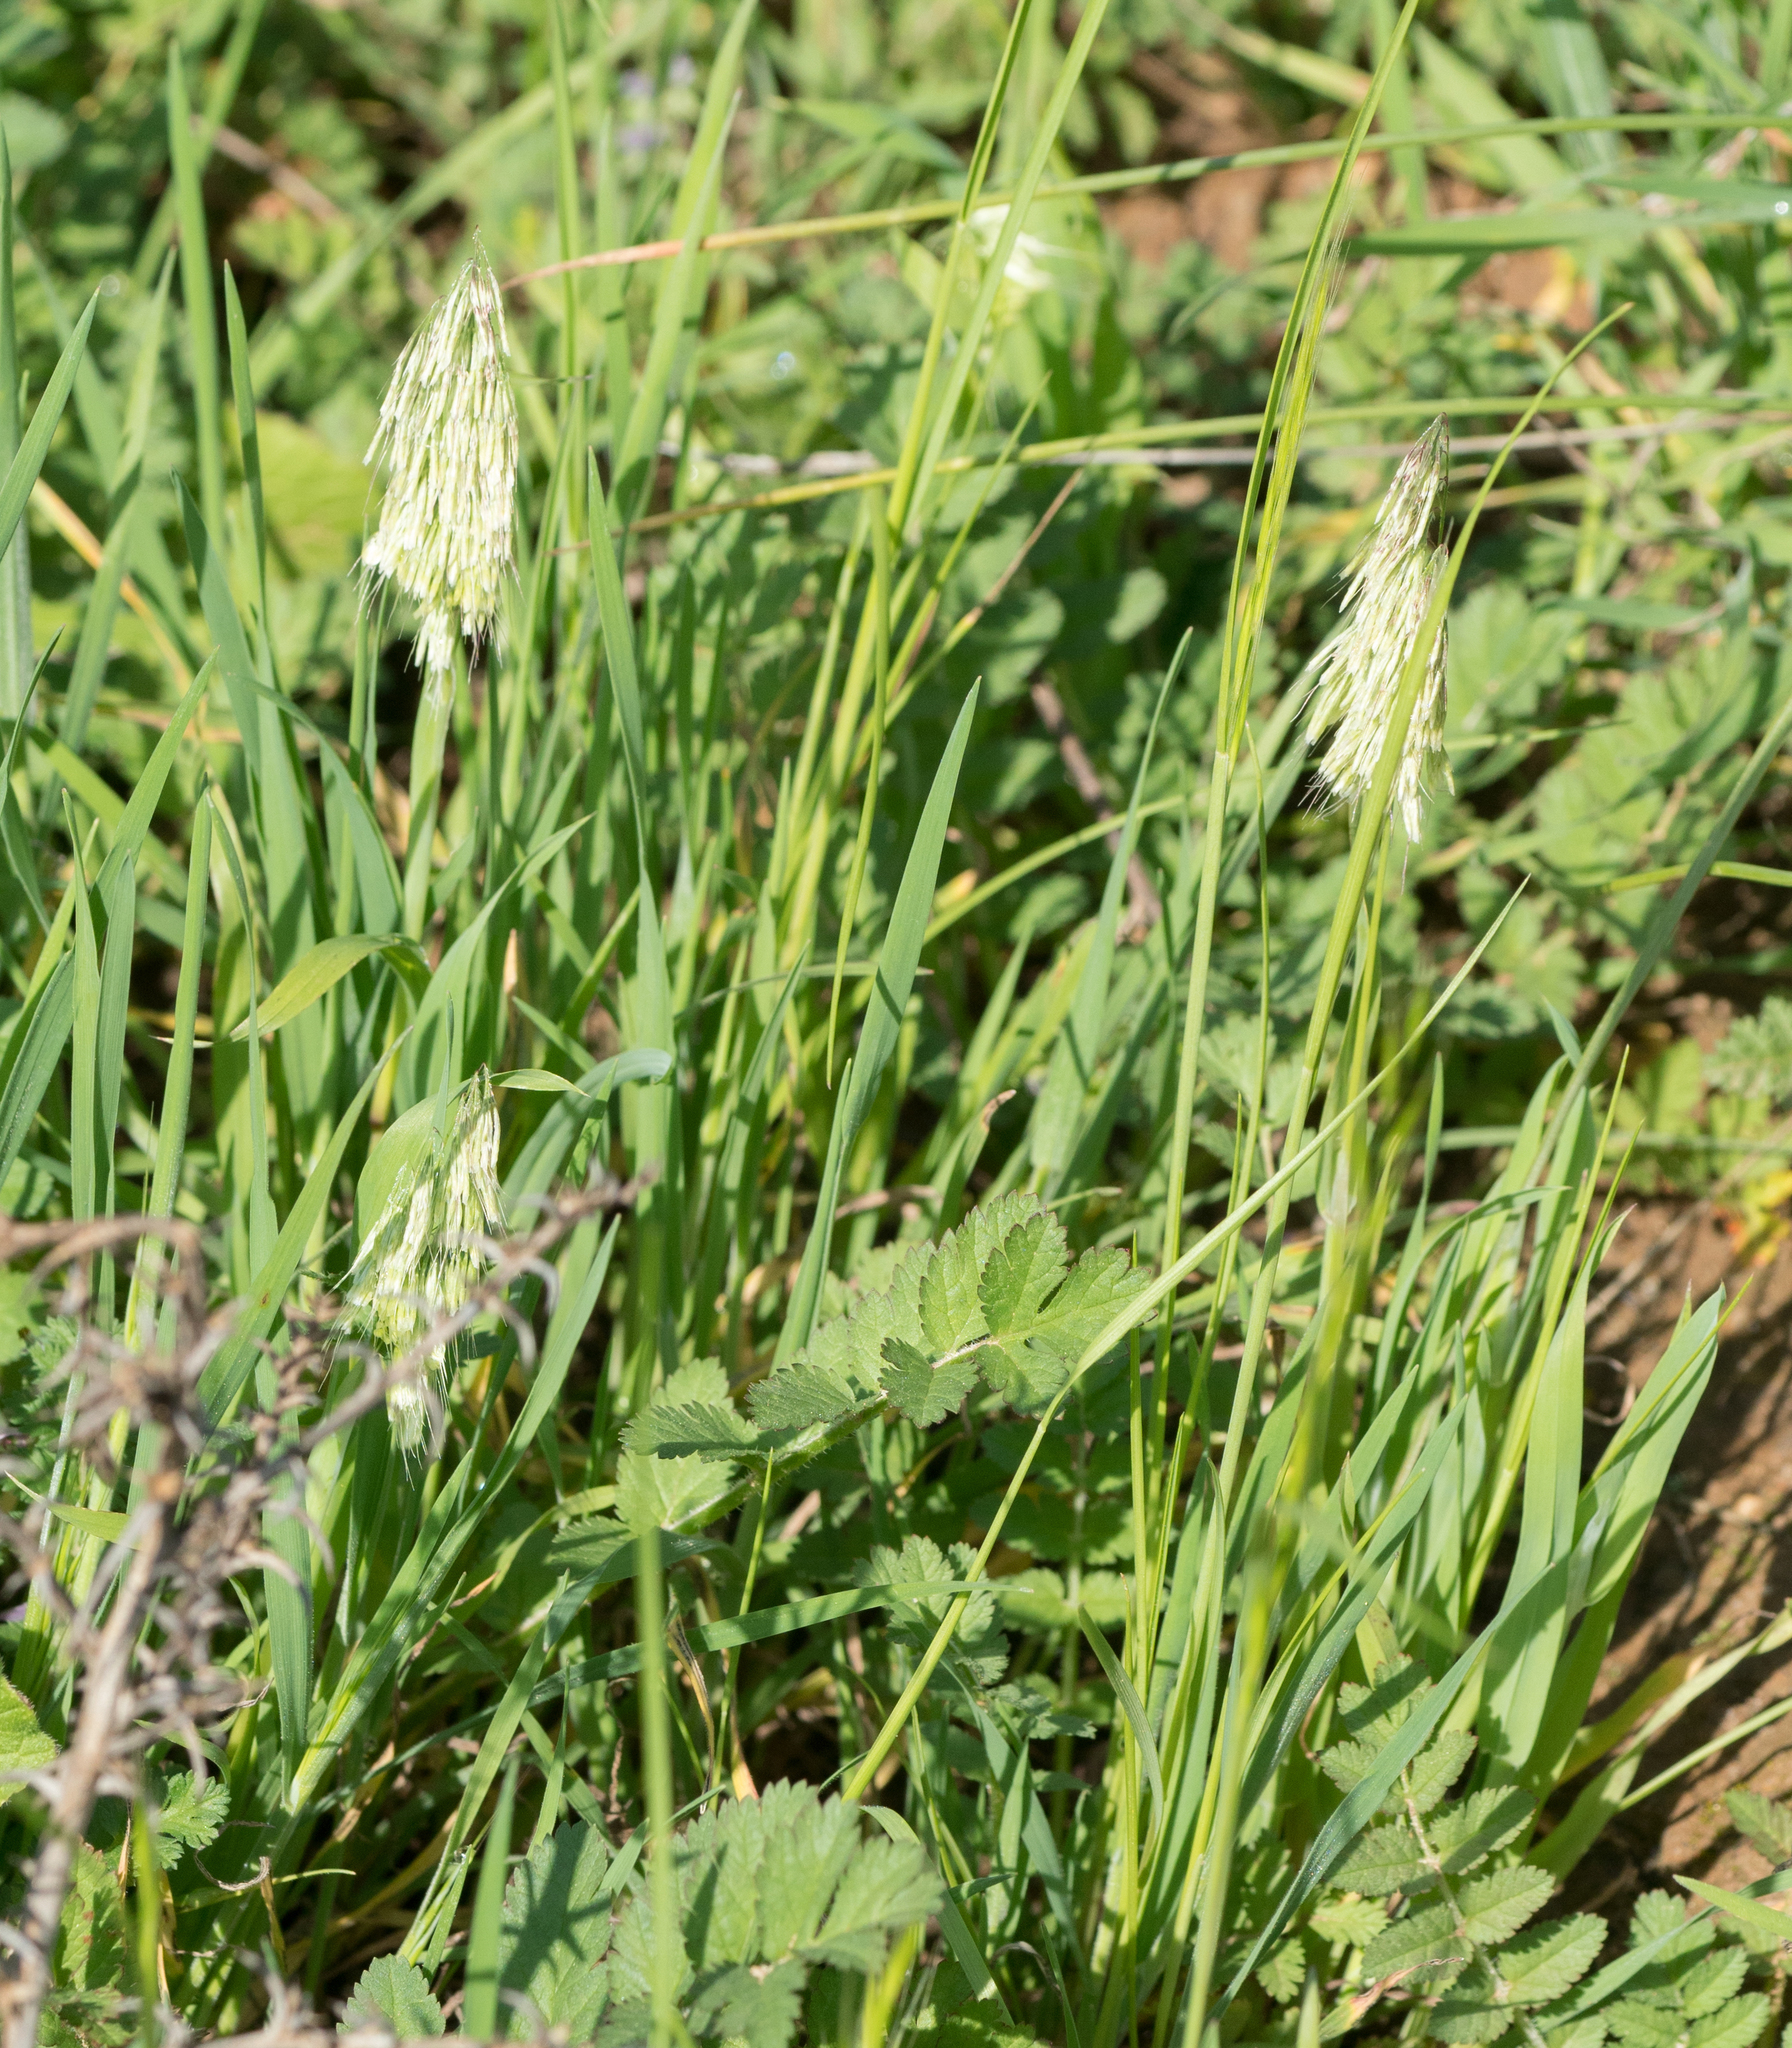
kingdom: Plantae
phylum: Tracheophyta
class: Liliopsida
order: Poales
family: Poaceae
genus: Lamarckia
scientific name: Lamarckia aurea
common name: Golden dog's-tail
